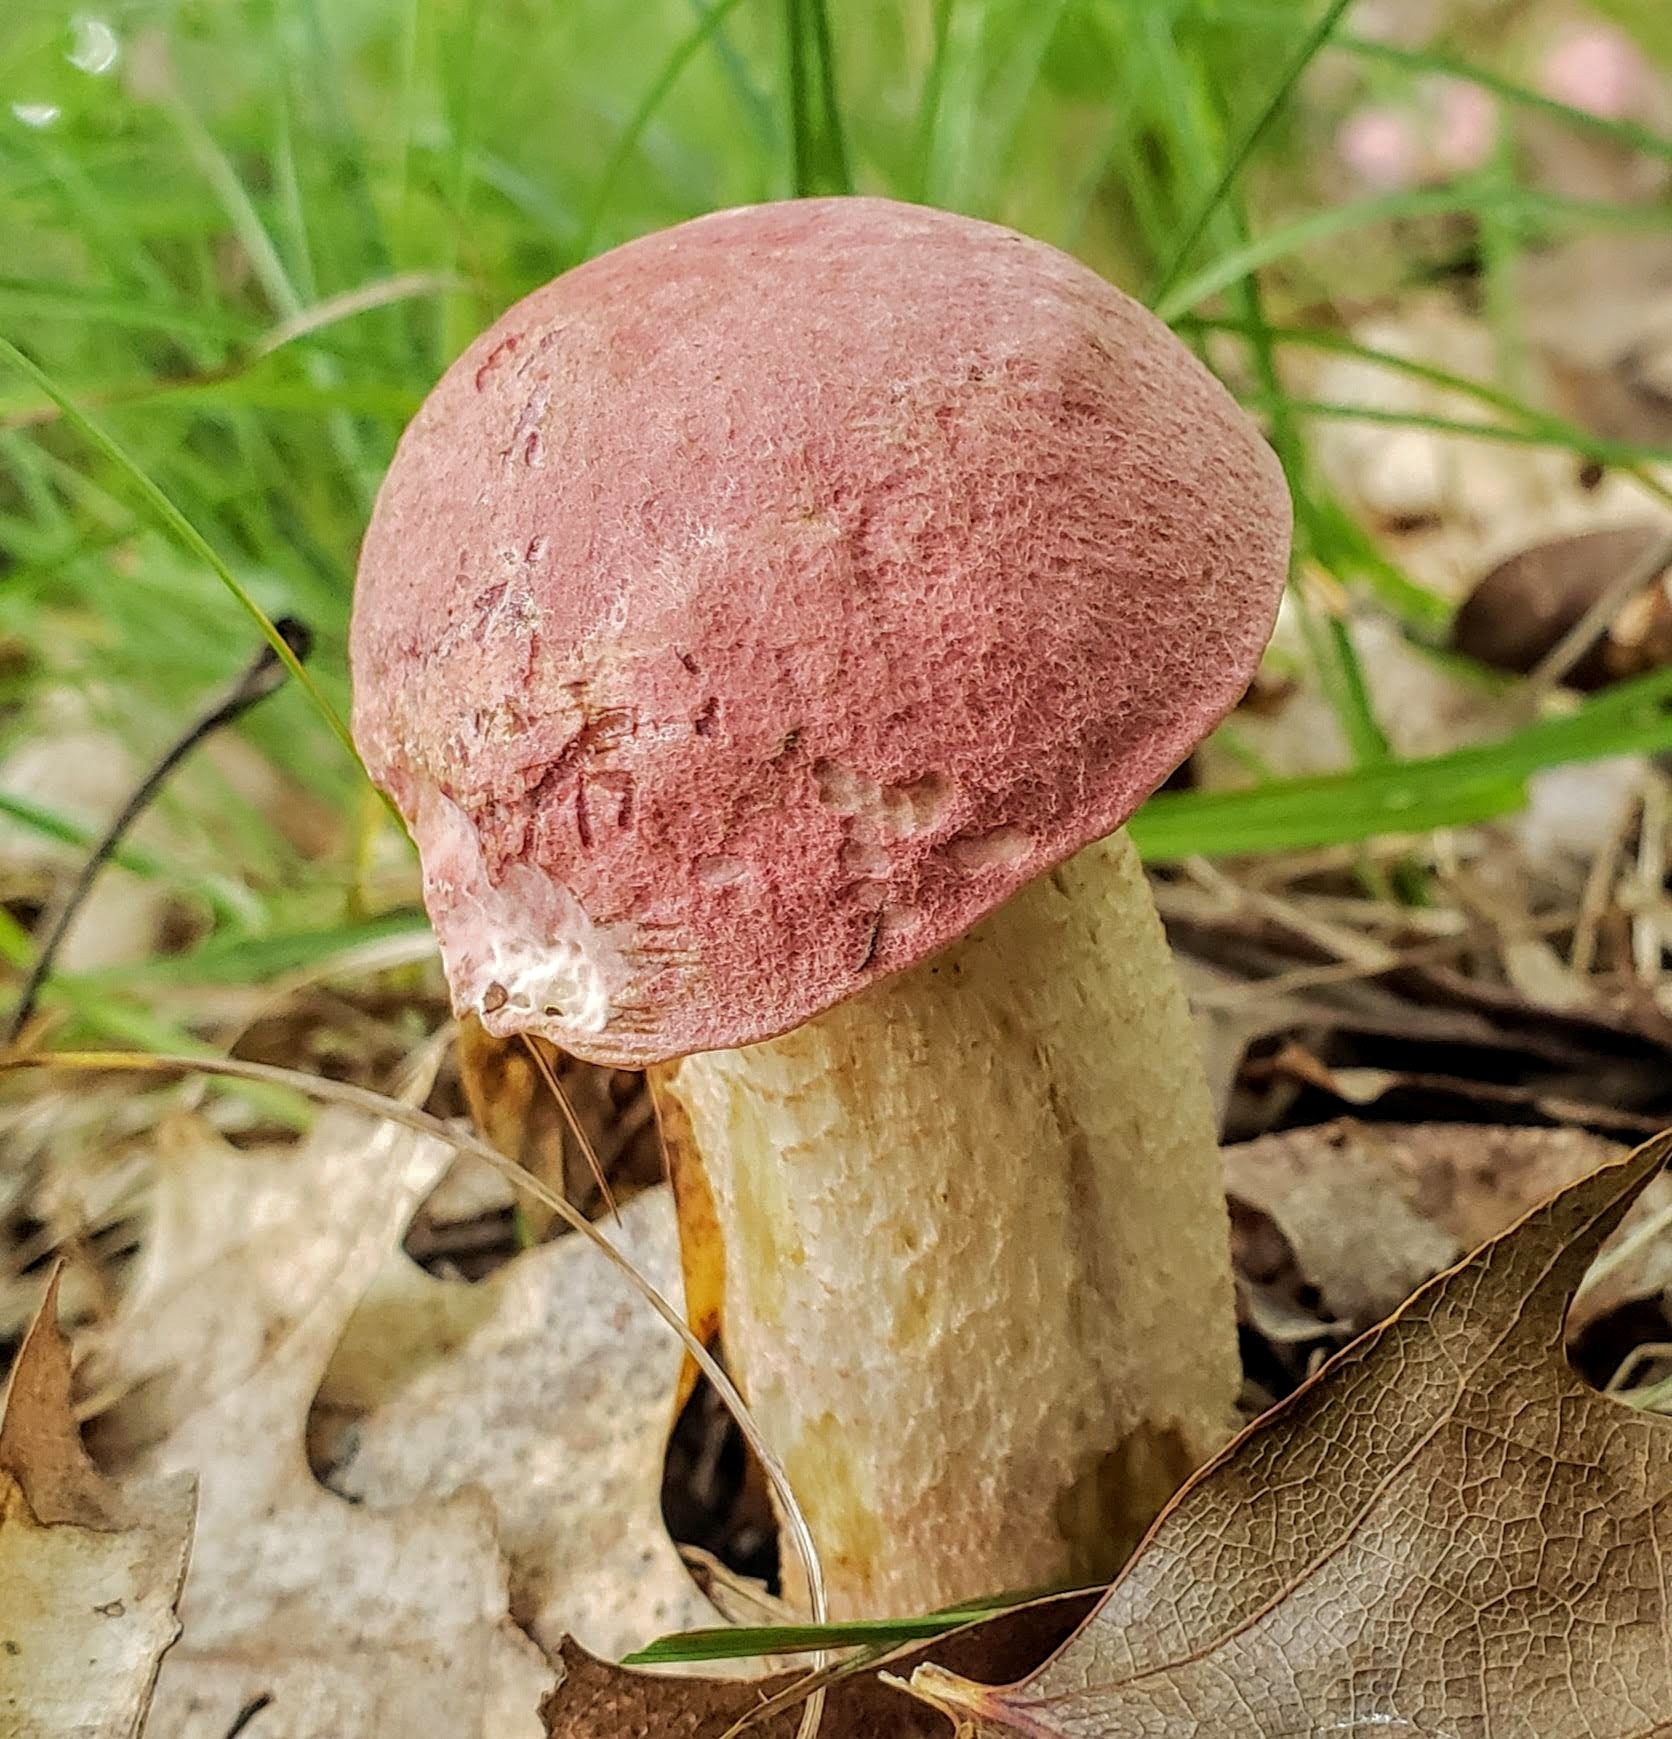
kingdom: Fungi
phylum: Basidiomycota
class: Agaricomycetes
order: Boletales
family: Boletaceae
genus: Harrya
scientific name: Harrya chromipes
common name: Chrome-footed bolete
